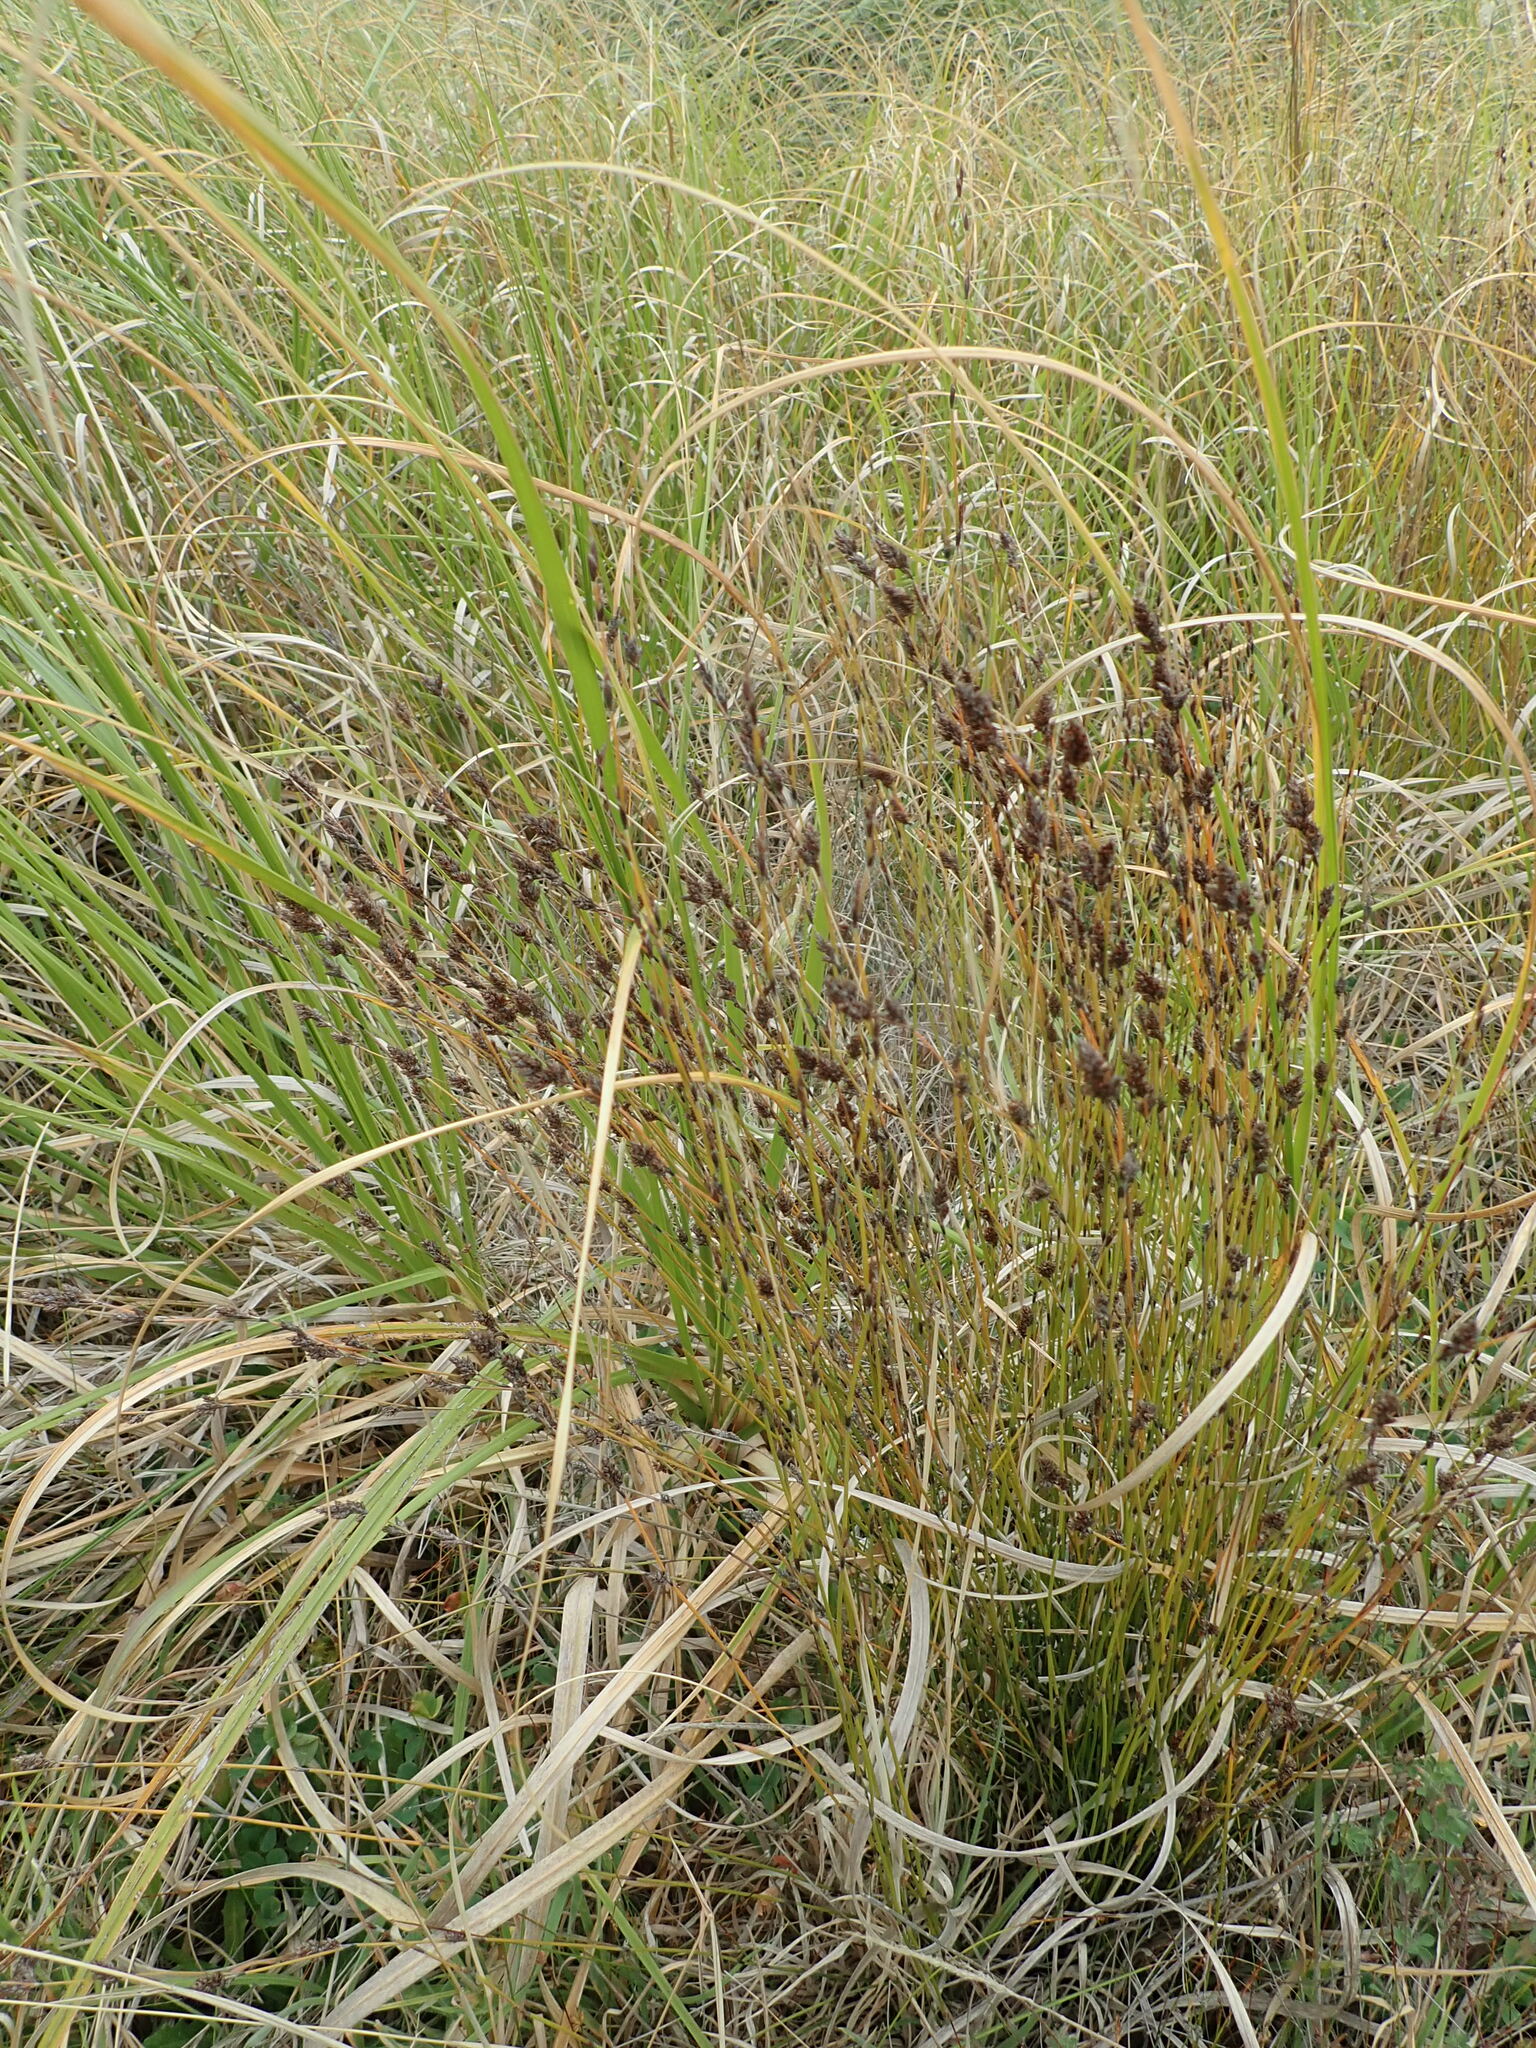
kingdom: Plantae
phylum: Tracheophyta
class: Liliopsida
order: Poales
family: Restionaceae
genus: Apodasmia
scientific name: Apodasmia similis
